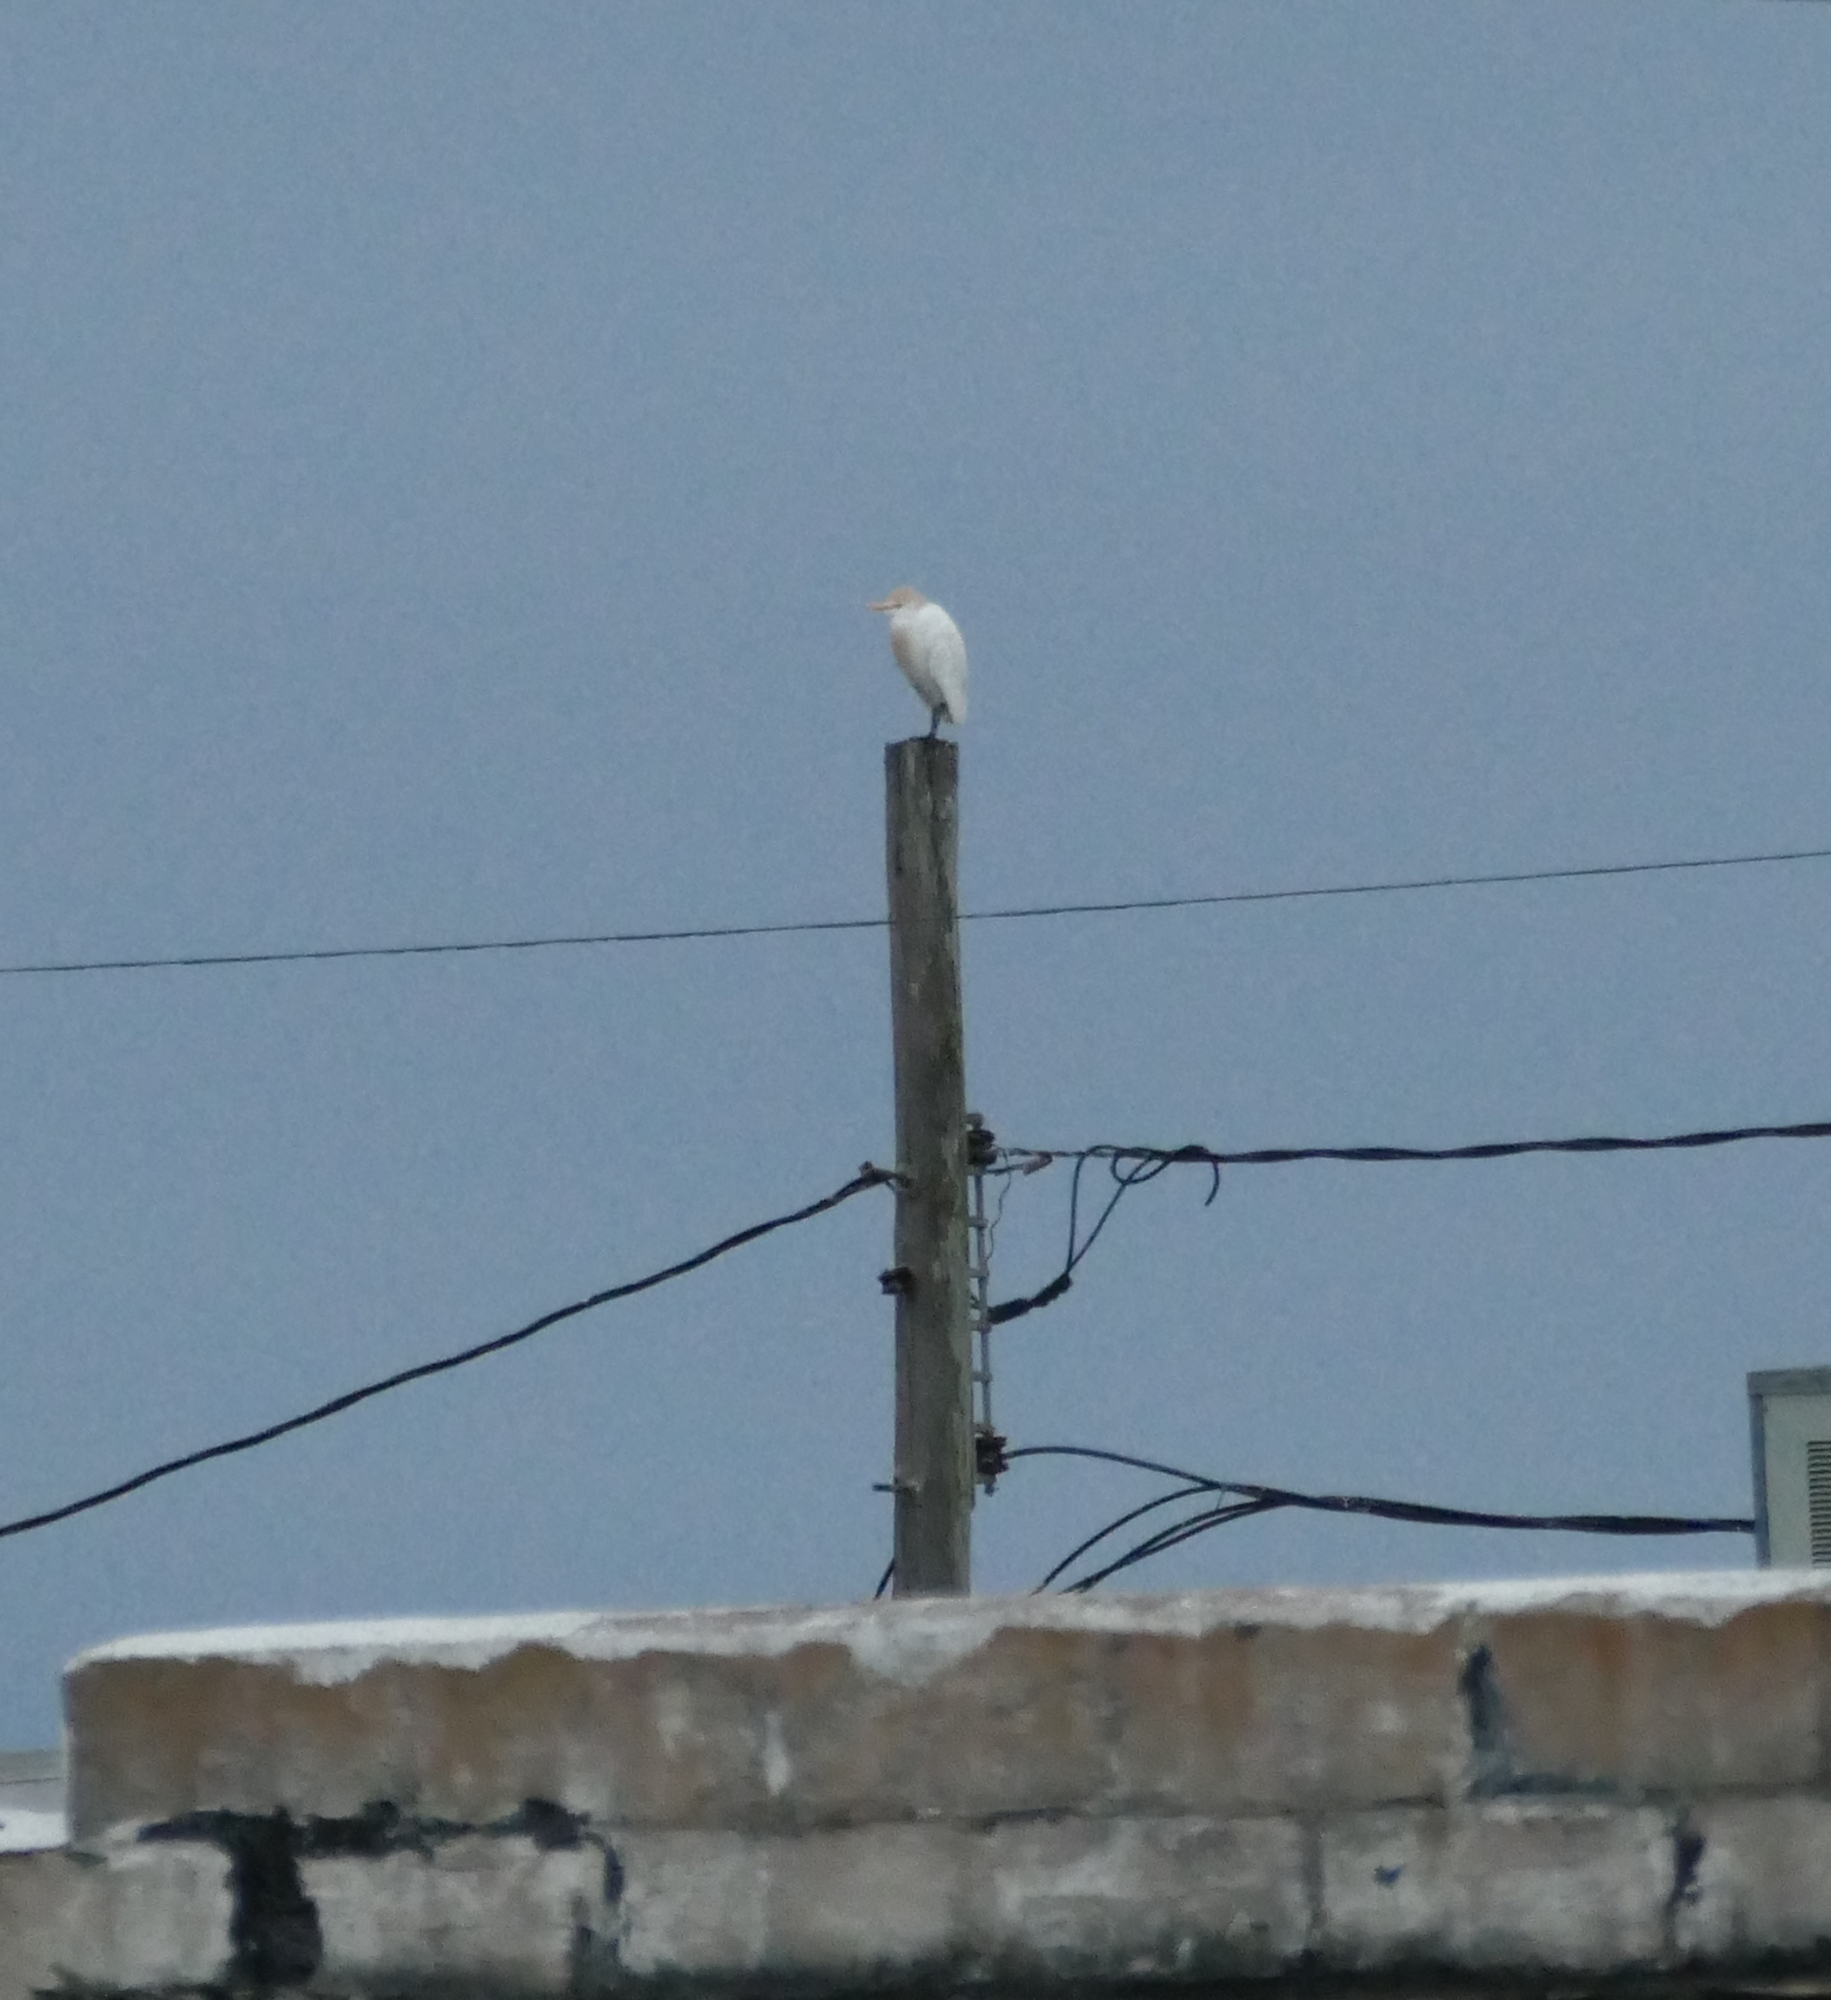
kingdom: Animalia
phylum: Chordata
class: Aves
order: Pelecaniformes
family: Ardeidae
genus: Bubulcus
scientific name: Bubulcus ibis
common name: Cattle egret
